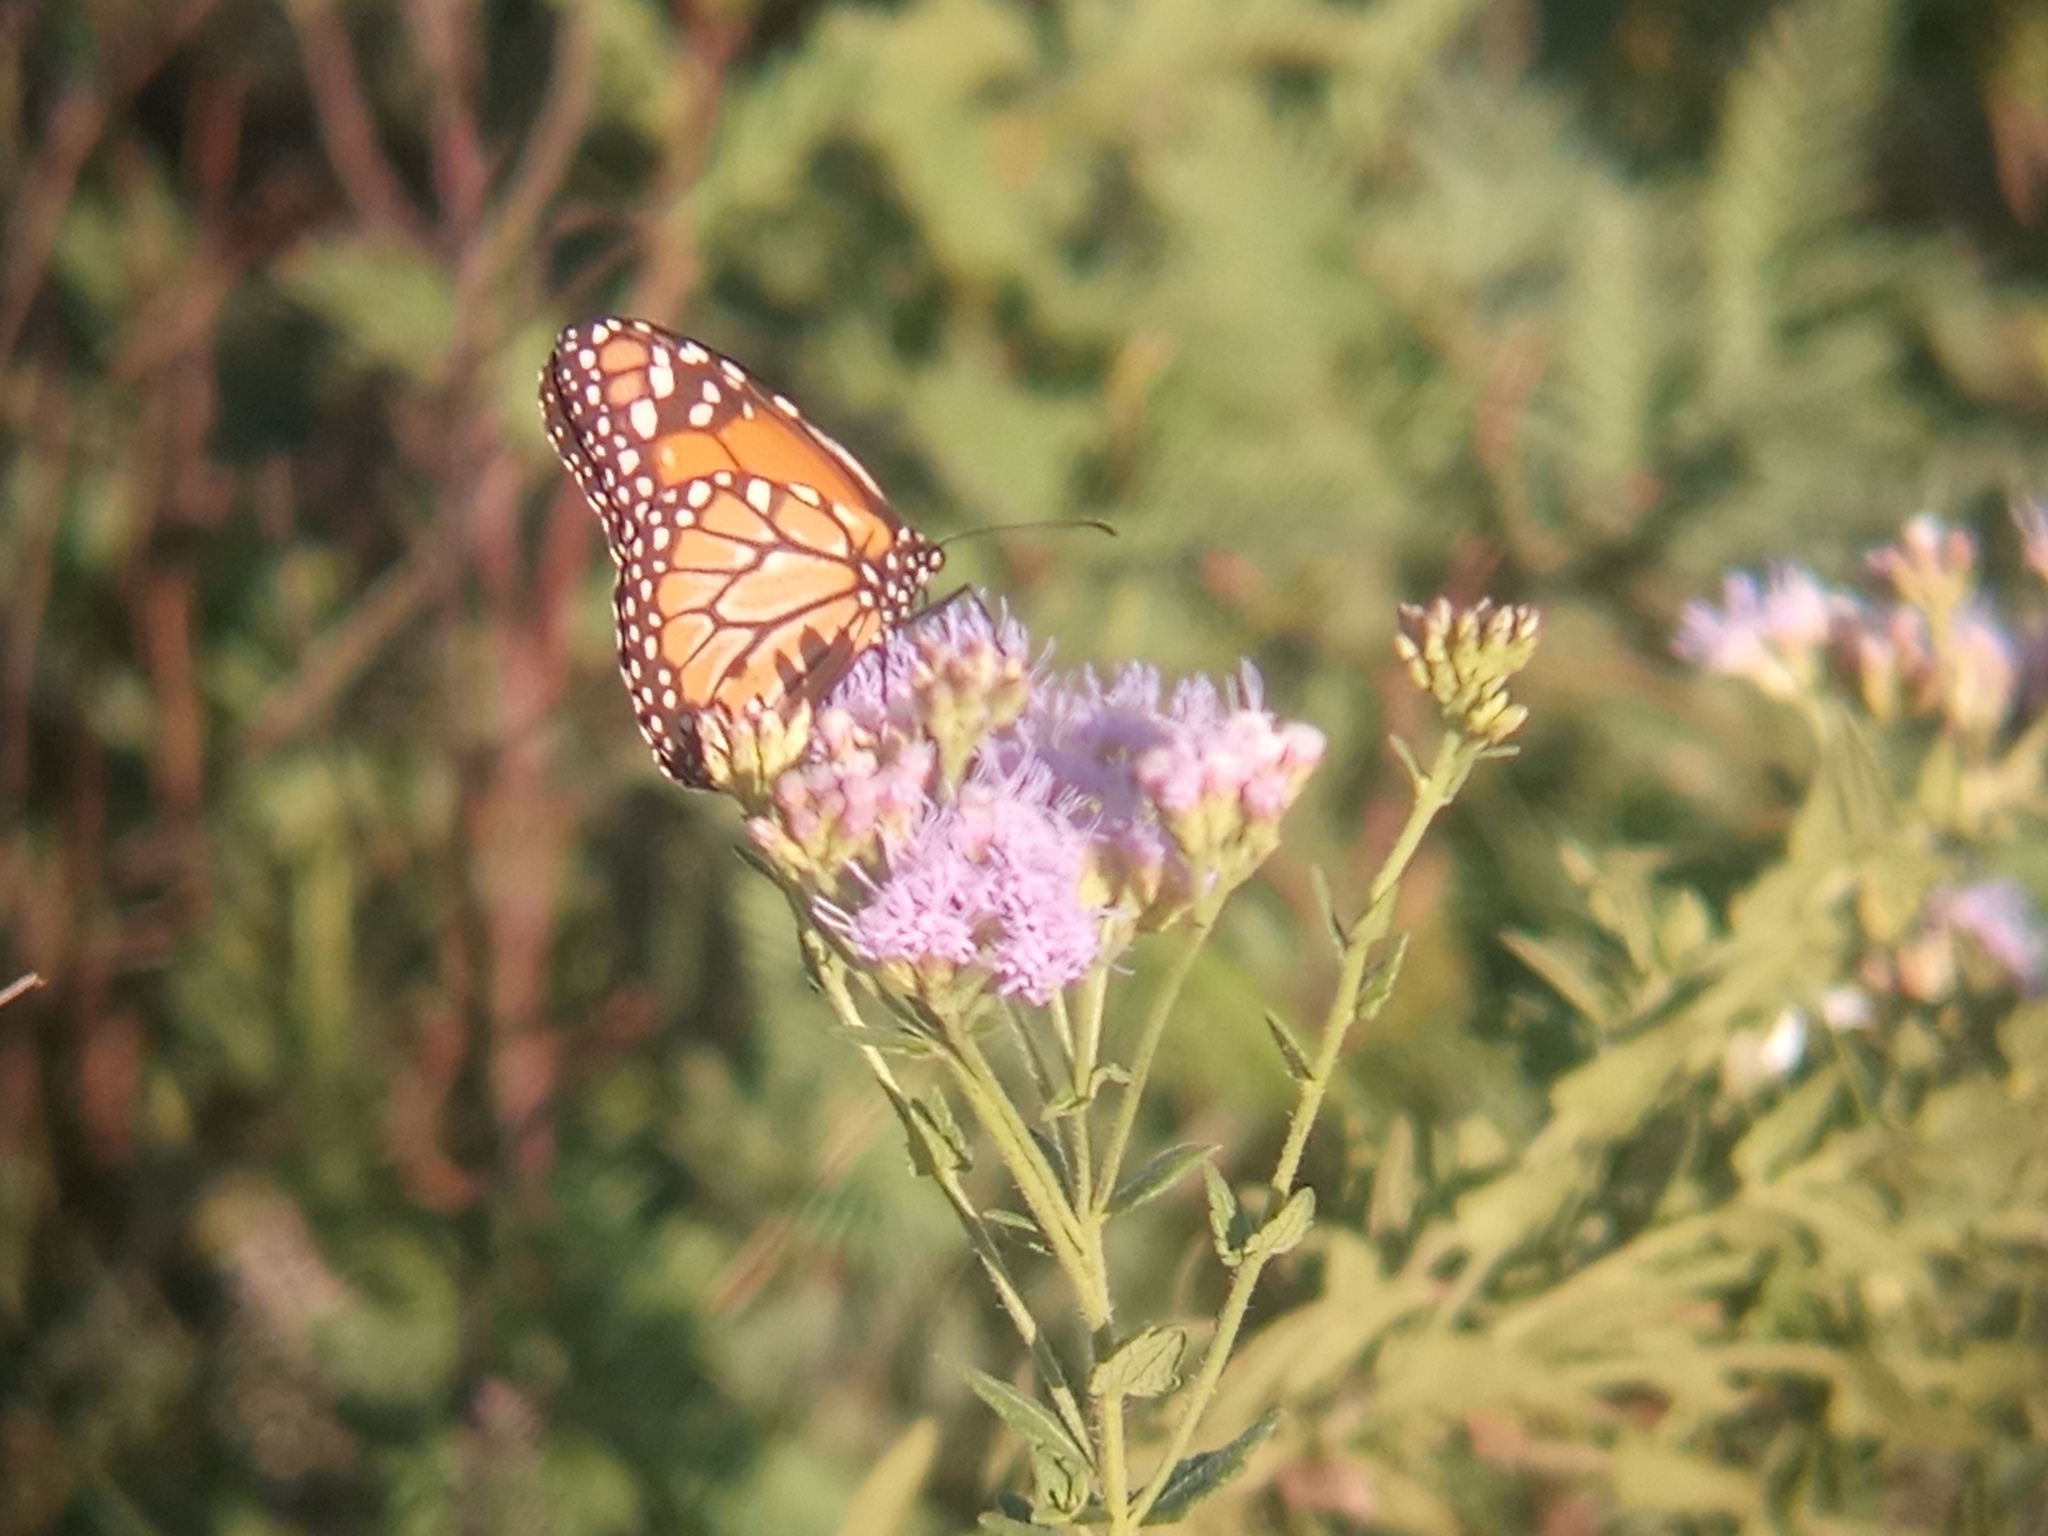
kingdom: Animalia
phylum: Arthropoda
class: Insecta
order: Lepidoptera
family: Nymphalidae
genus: Danaus
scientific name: Danaus erippus
